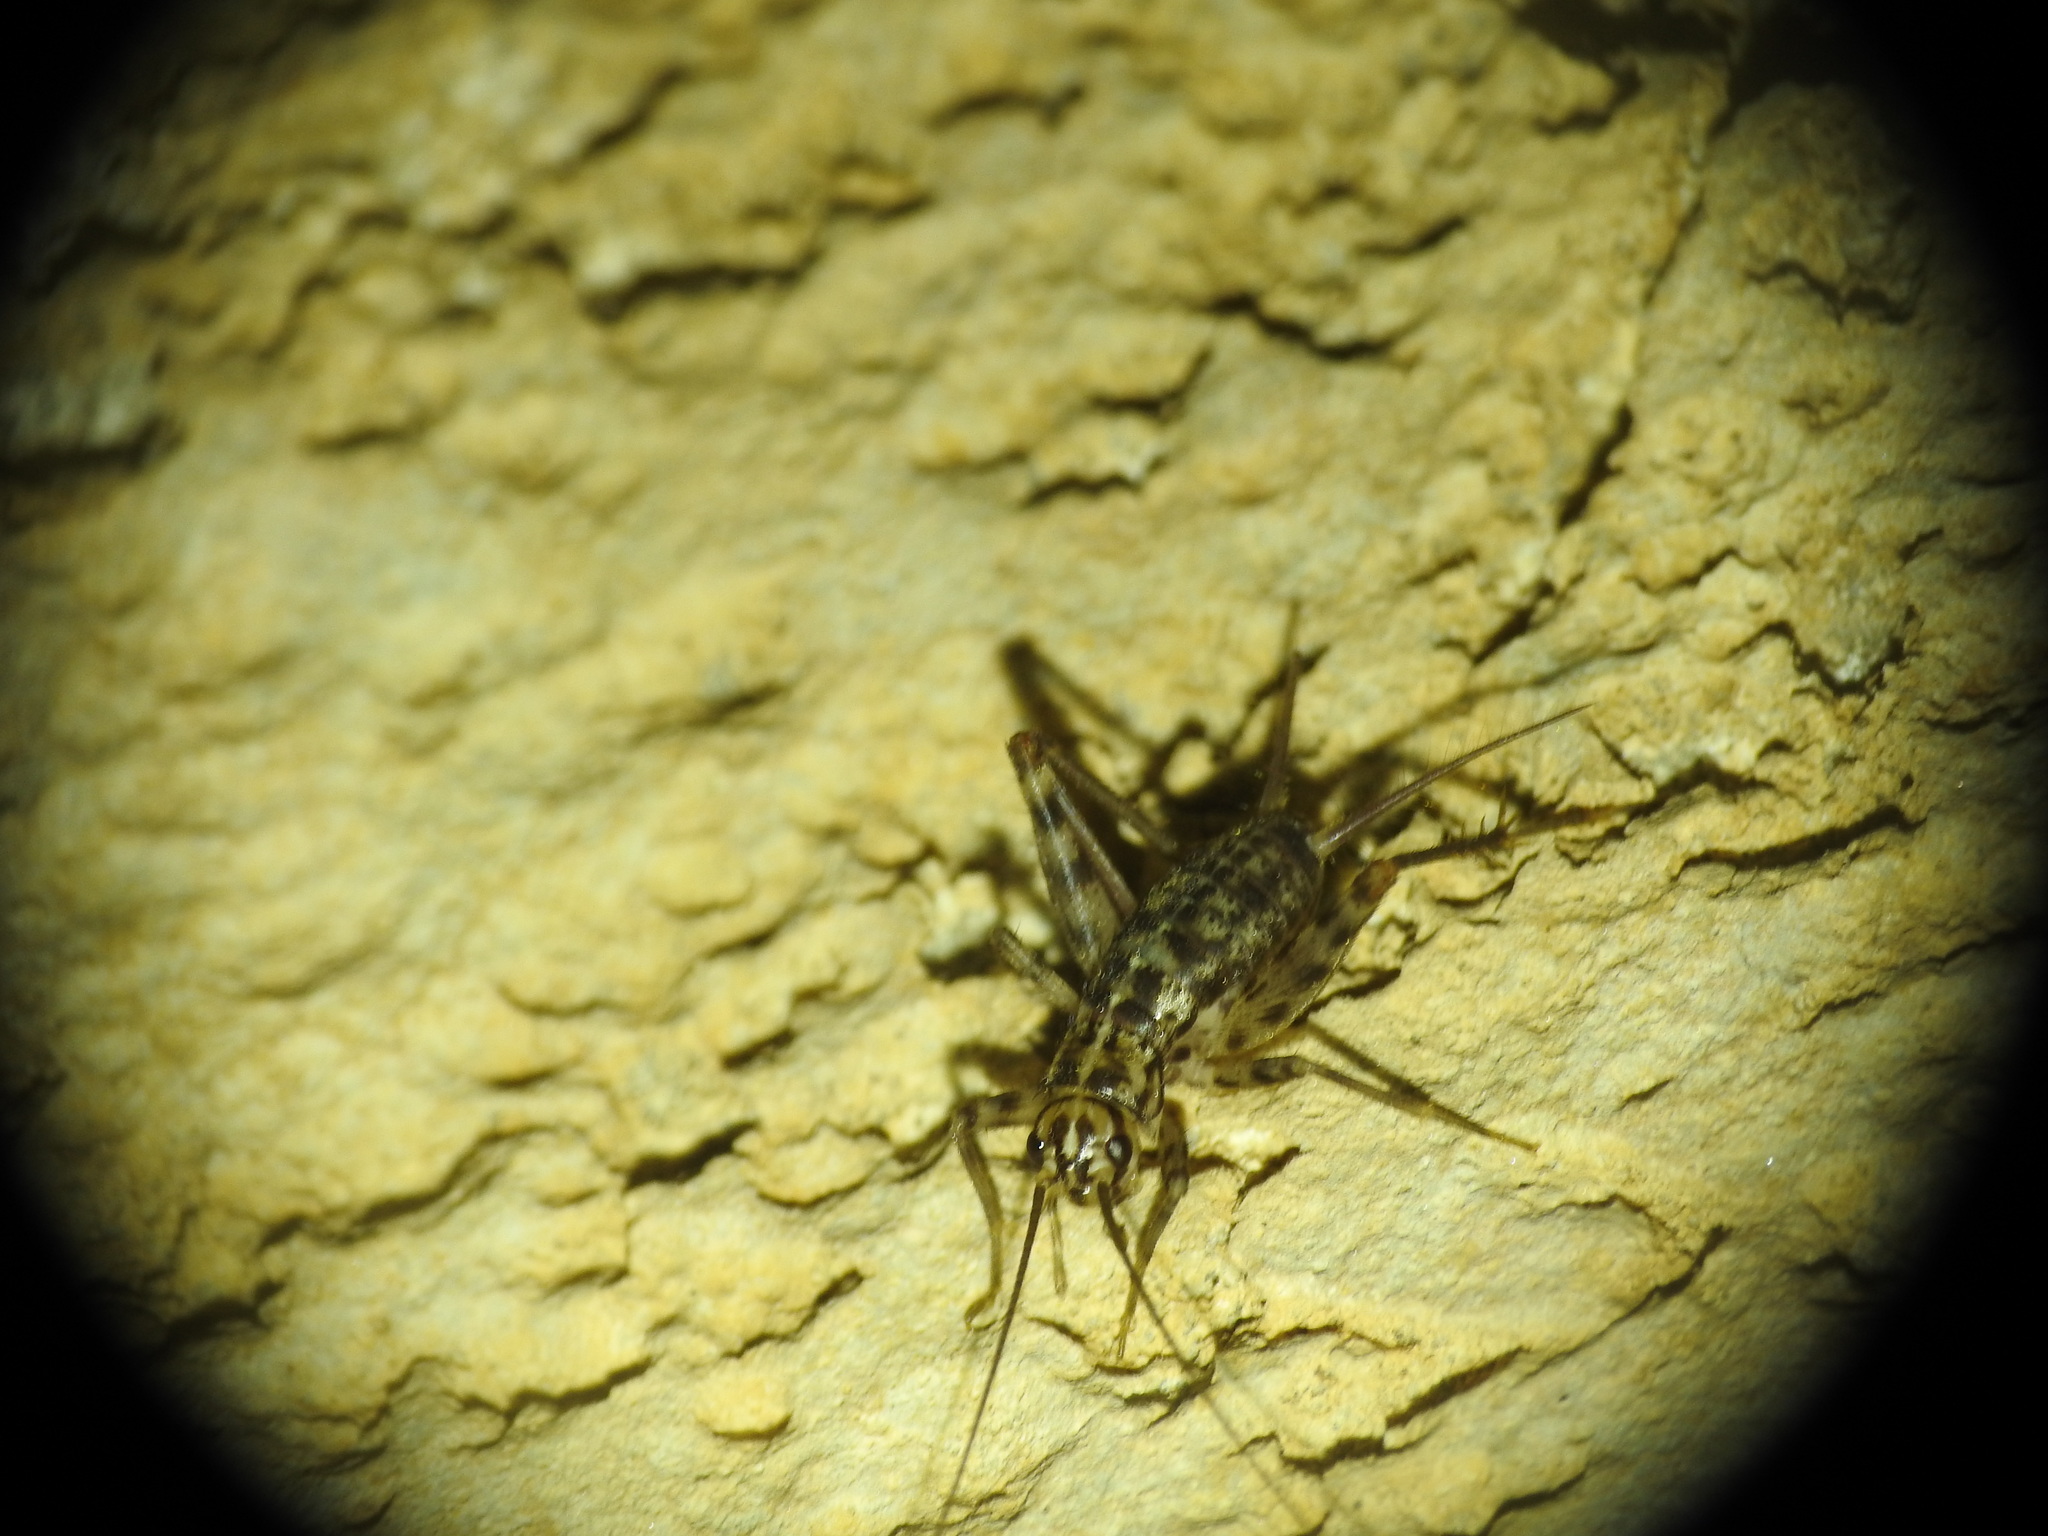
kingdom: Animalia
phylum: Arthropoda
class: Insecta
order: Orthoptera
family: Gryllidae
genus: Gryllomorpha
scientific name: Gryllomorpha dalmatina
